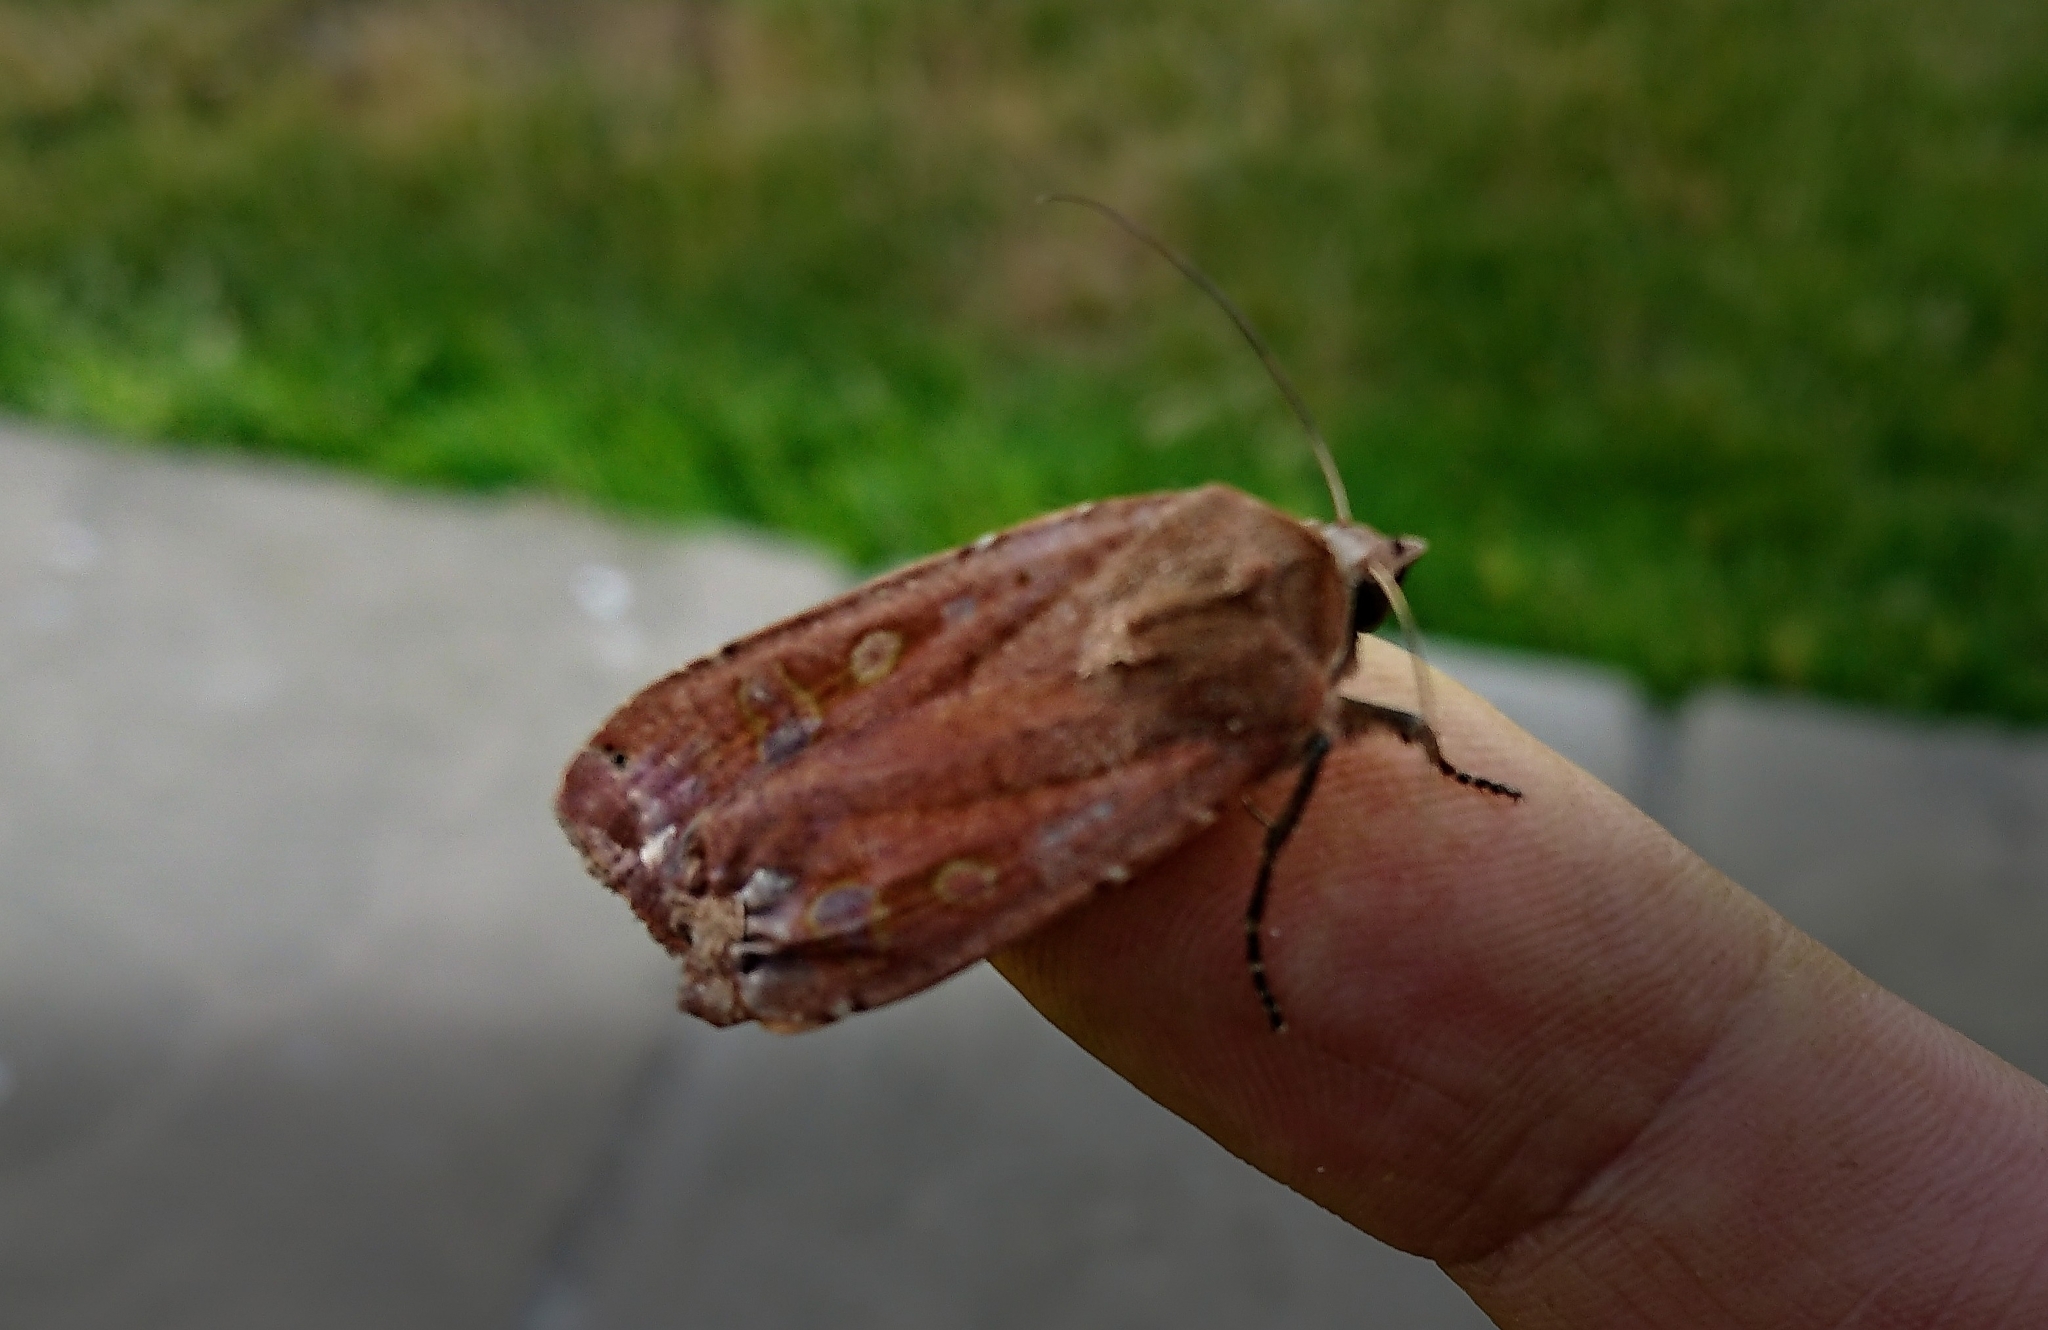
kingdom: Animalia
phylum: Arthropoda
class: Insecta
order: Lepidoptera
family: Noctuidae
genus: Noctua
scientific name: Noctua pronuba
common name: Large yellow underwing
